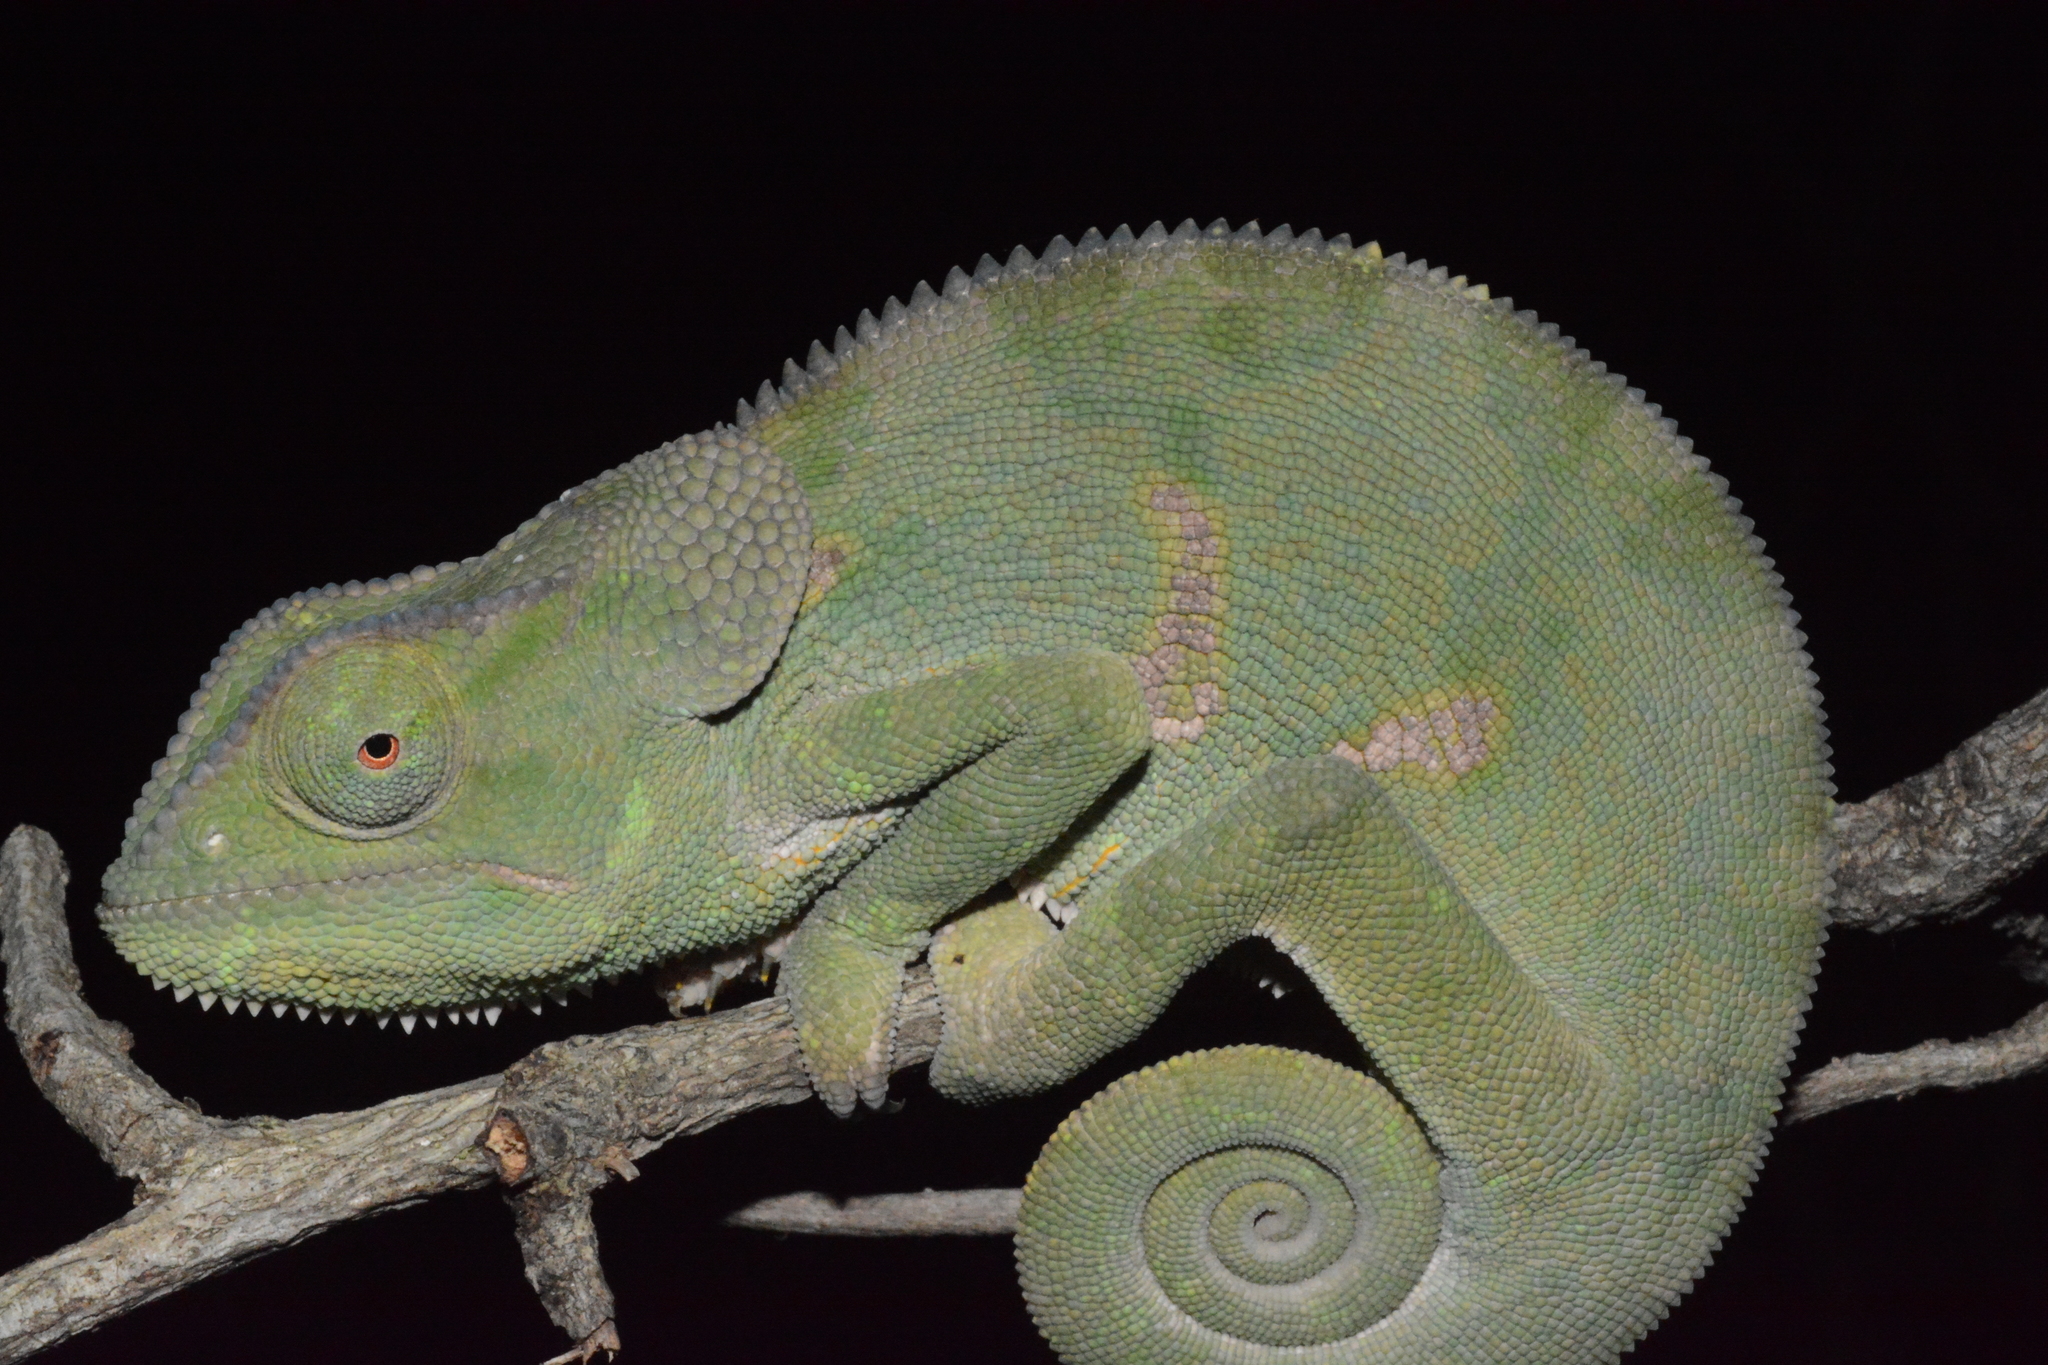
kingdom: Animalia
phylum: Chordata
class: Squamata
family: Chamaeleonidae
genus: Chamaeleo
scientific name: Chamaeleo dilepis
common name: Flapneck chameleon
